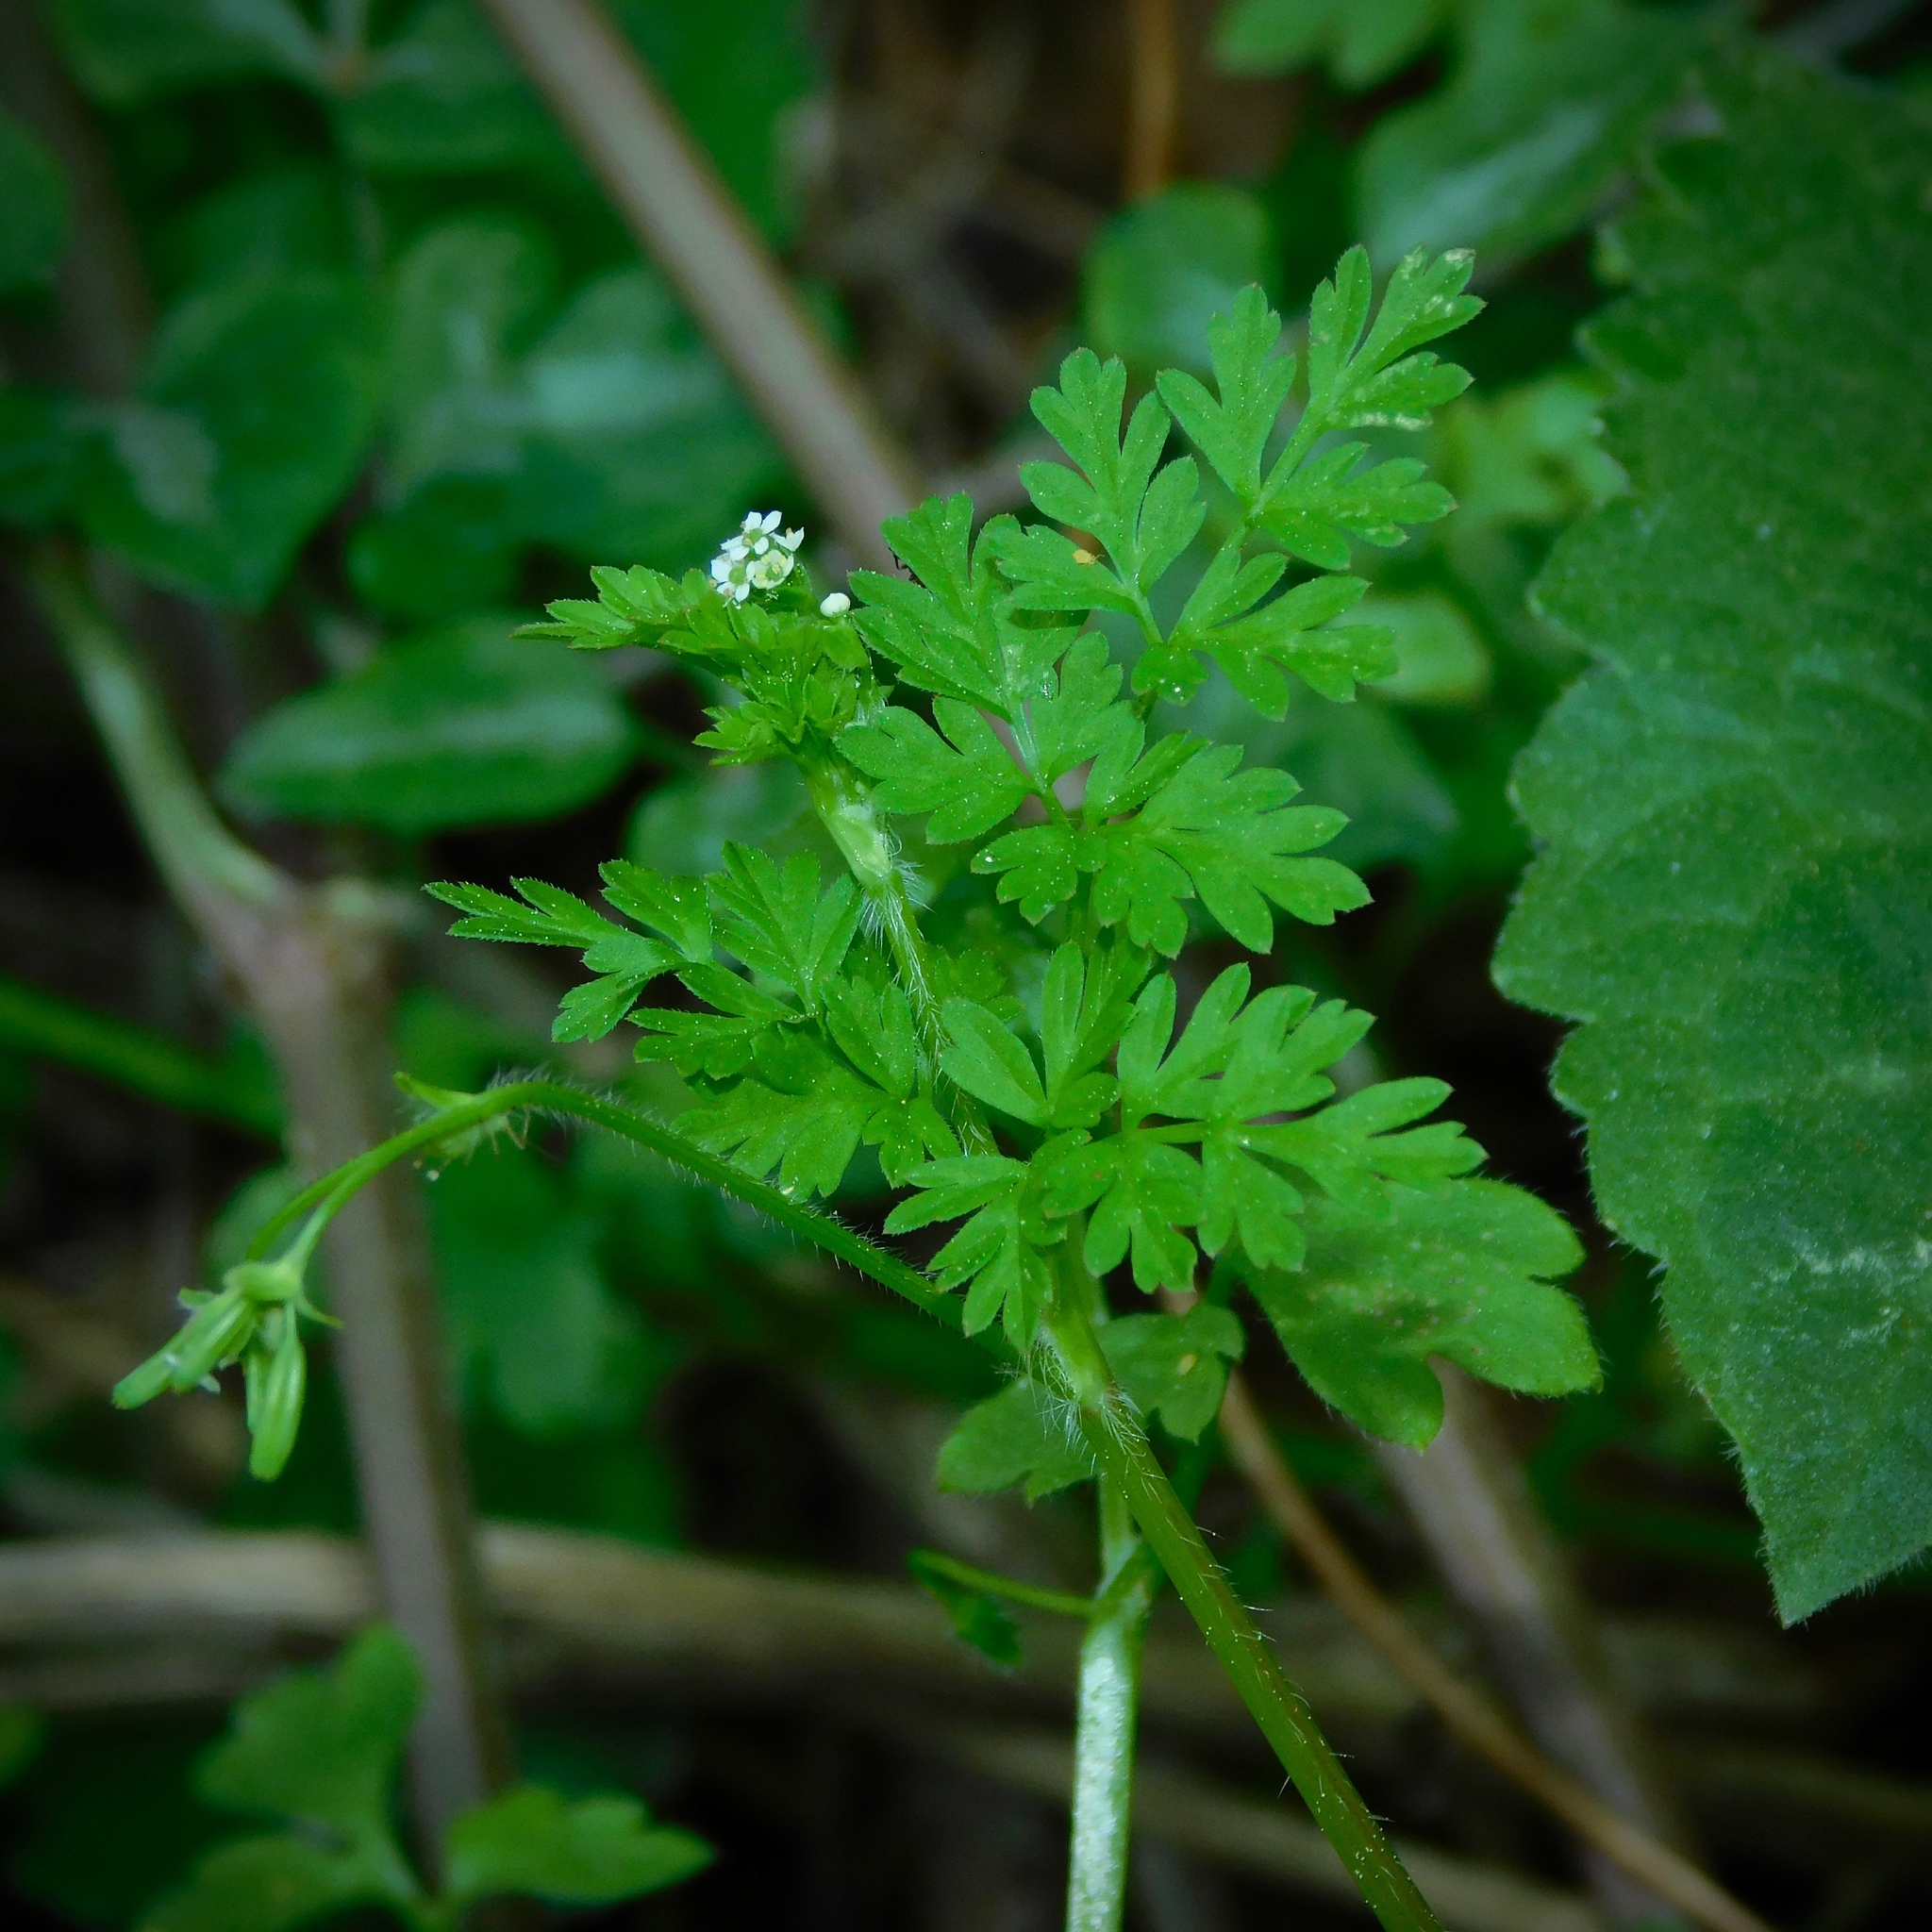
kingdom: Plantae
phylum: Tracheophyta
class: Magnoliopsida
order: Apiales
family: Apiaceae
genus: Chaerophyllum
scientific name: Chaerophyllum procumbens
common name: Spreading chervil
